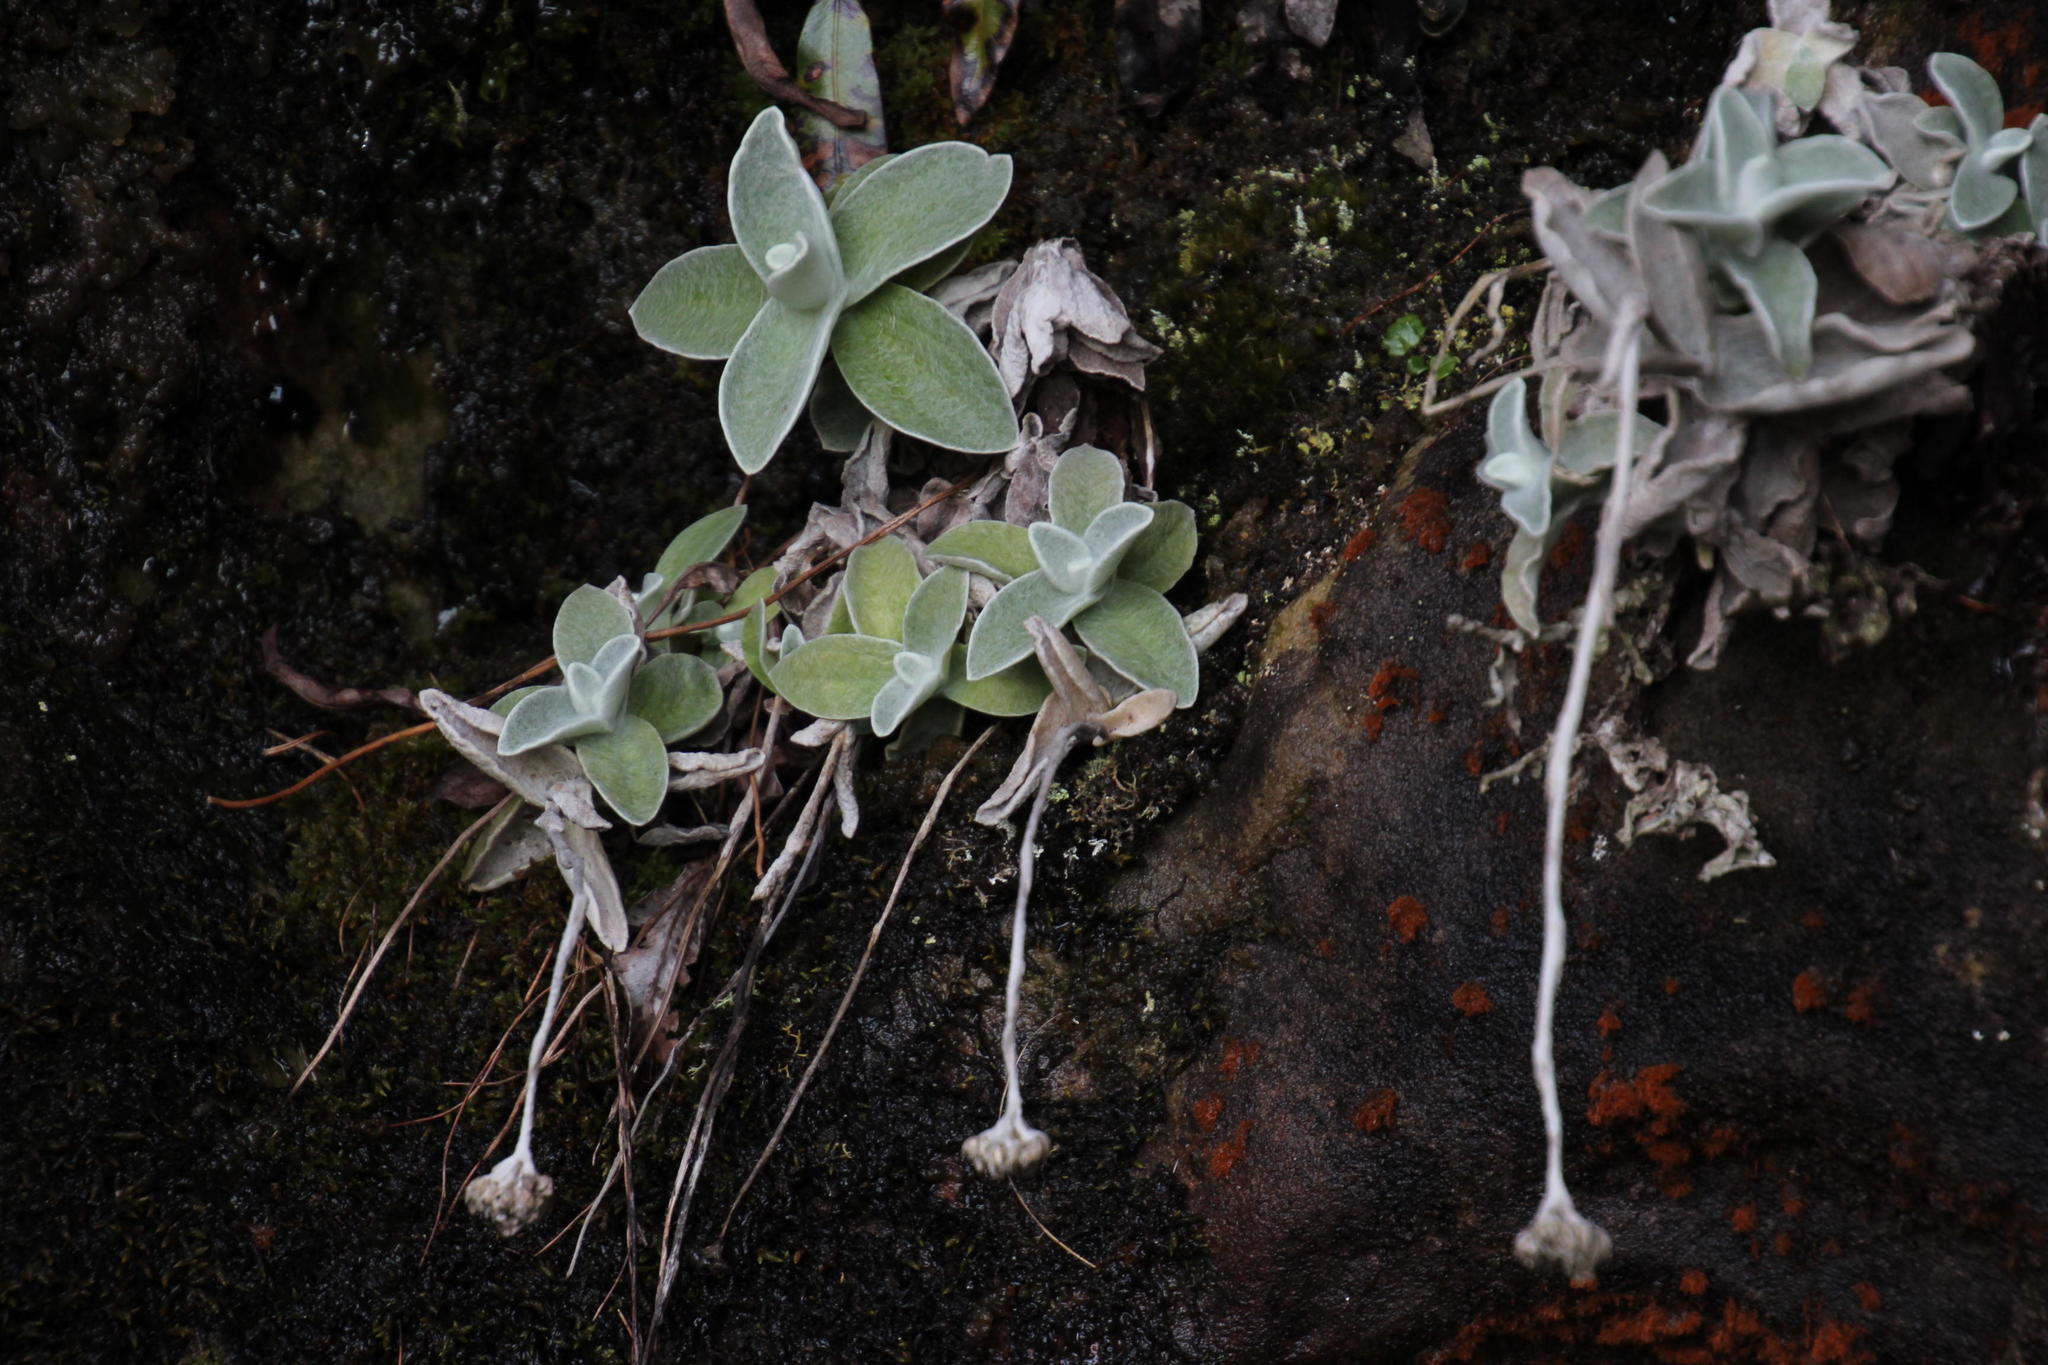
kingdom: Plantae
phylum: Tracheophyta
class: Magnoliopsida
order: Asterales
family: Asteraceae
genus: Helichrysum
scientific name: Helichrysum grandiflorum
